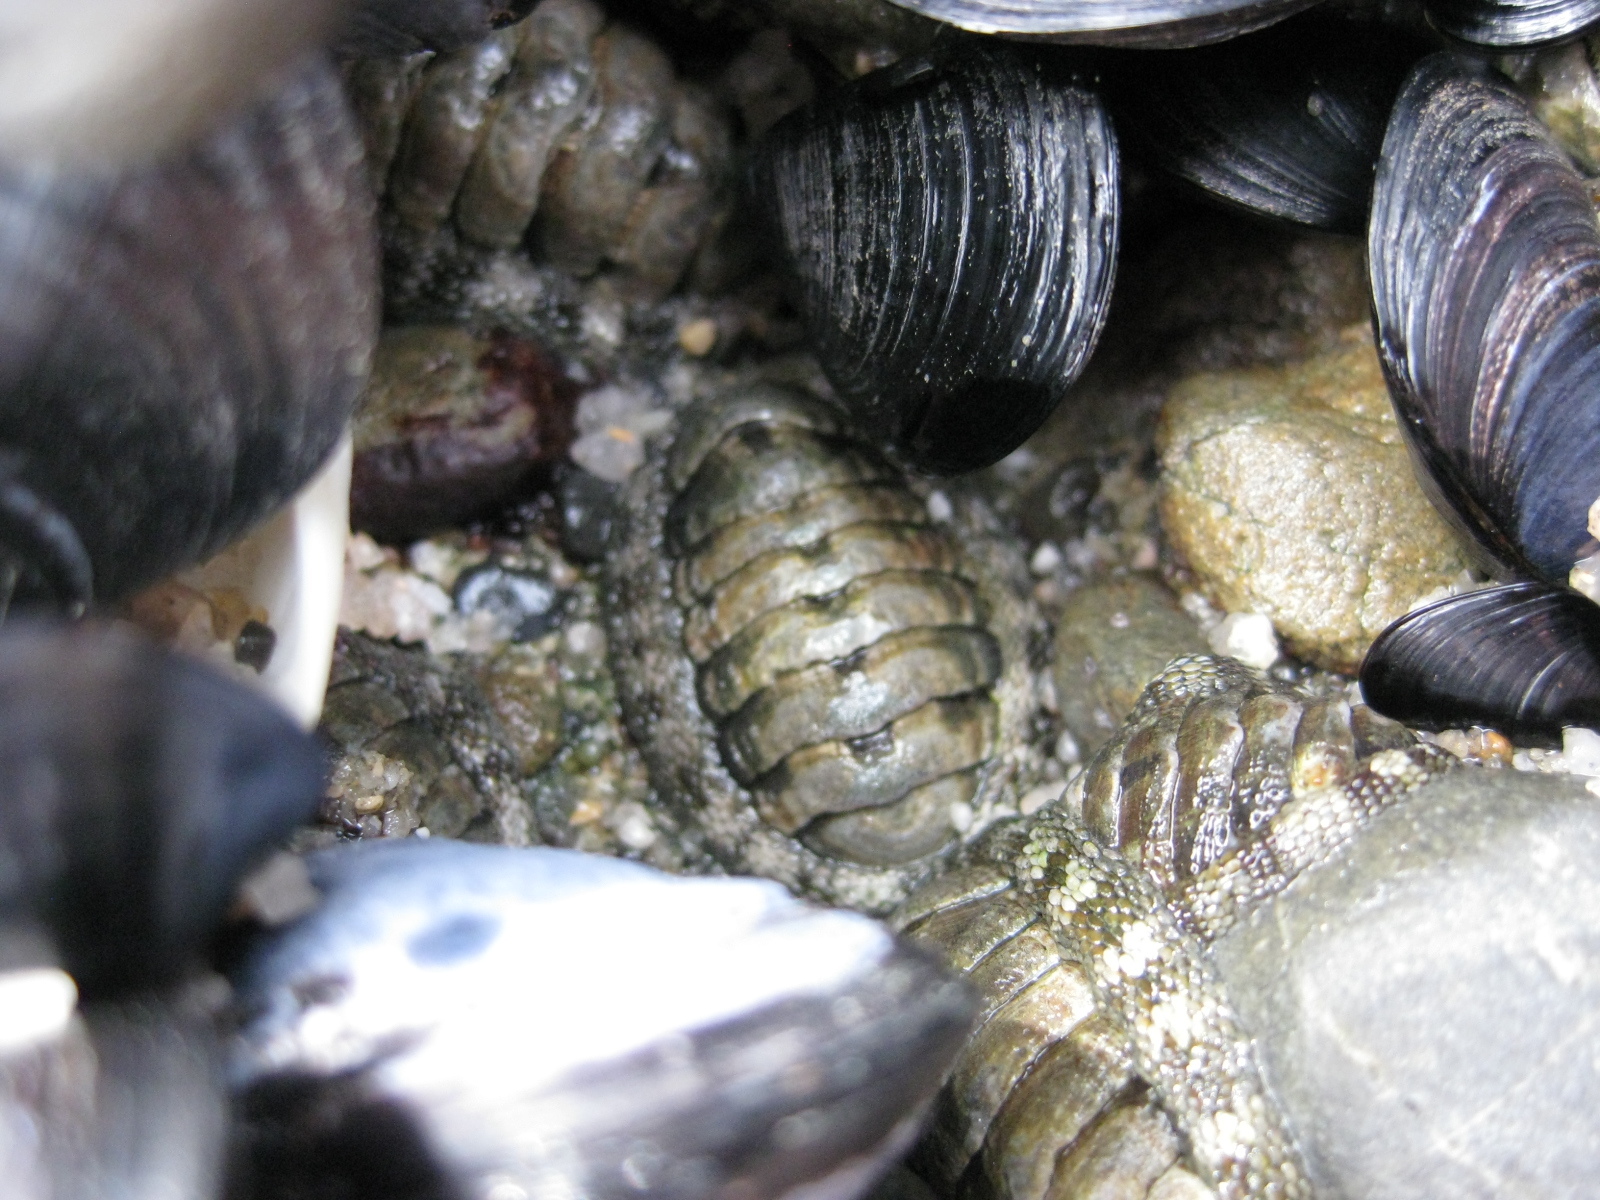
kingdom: Animalia
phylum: Mollusca
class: Polyplacophora
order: Chitonida
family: Chitonidae
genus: Sypharochiton
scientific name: Sypharochiton pelliserpentis
